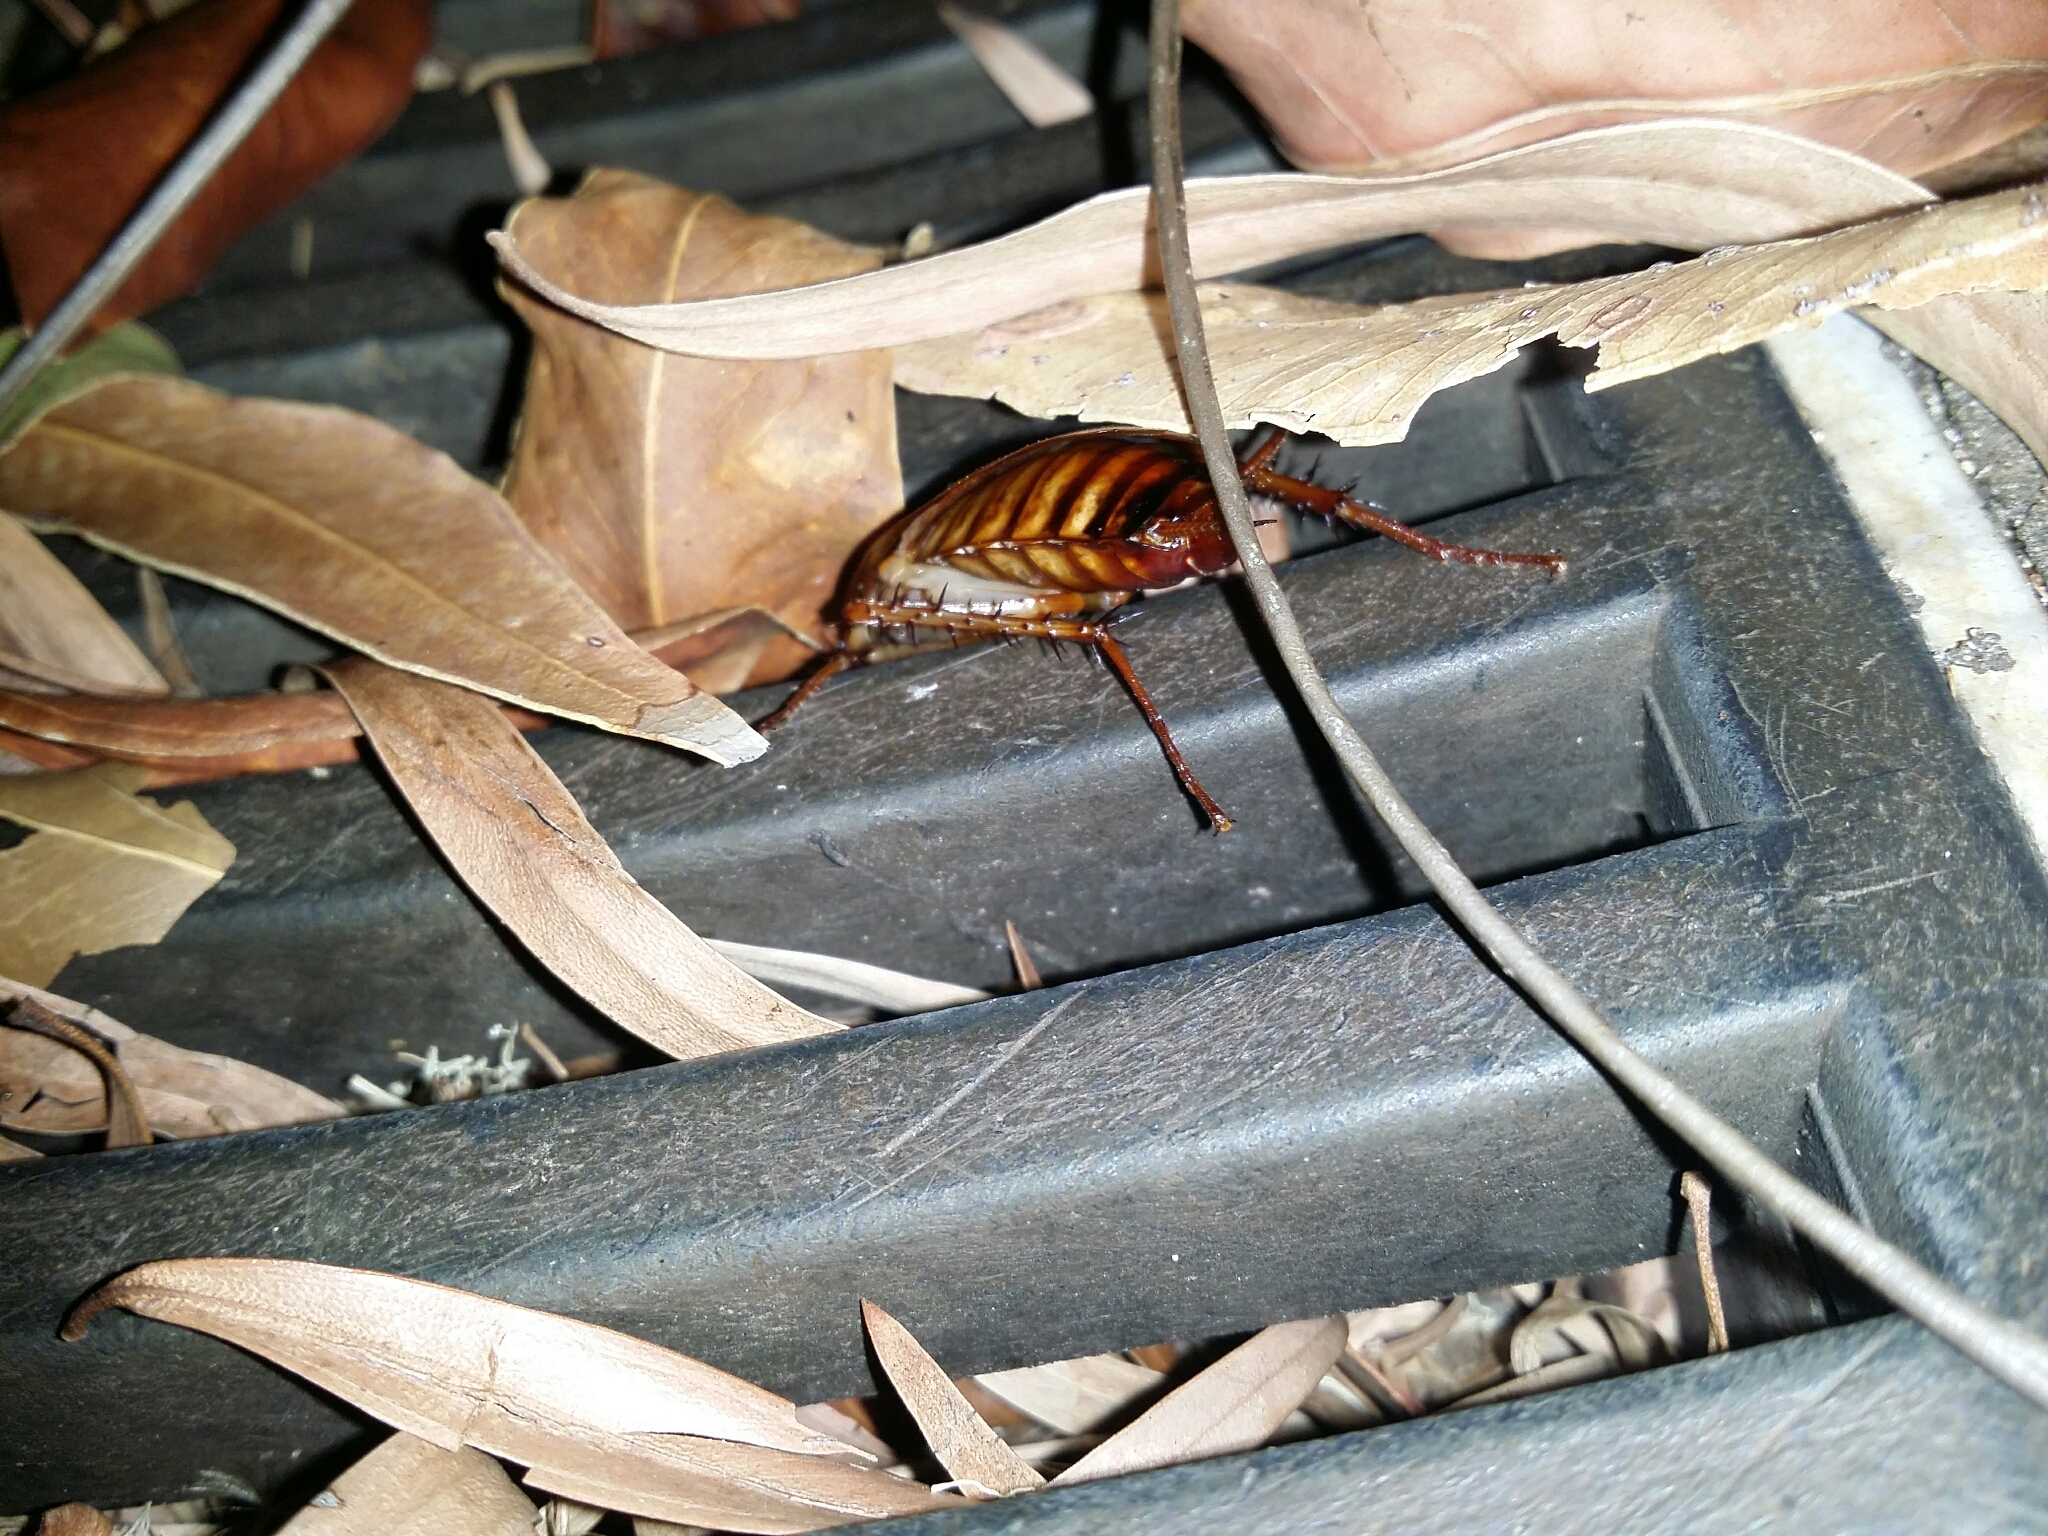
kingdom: Animalia
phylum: Arthropoda
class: Insecta
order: Blattodea
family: Blattidae
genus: Periplaneta
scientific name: Periplaneta americana
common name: American cockroach
